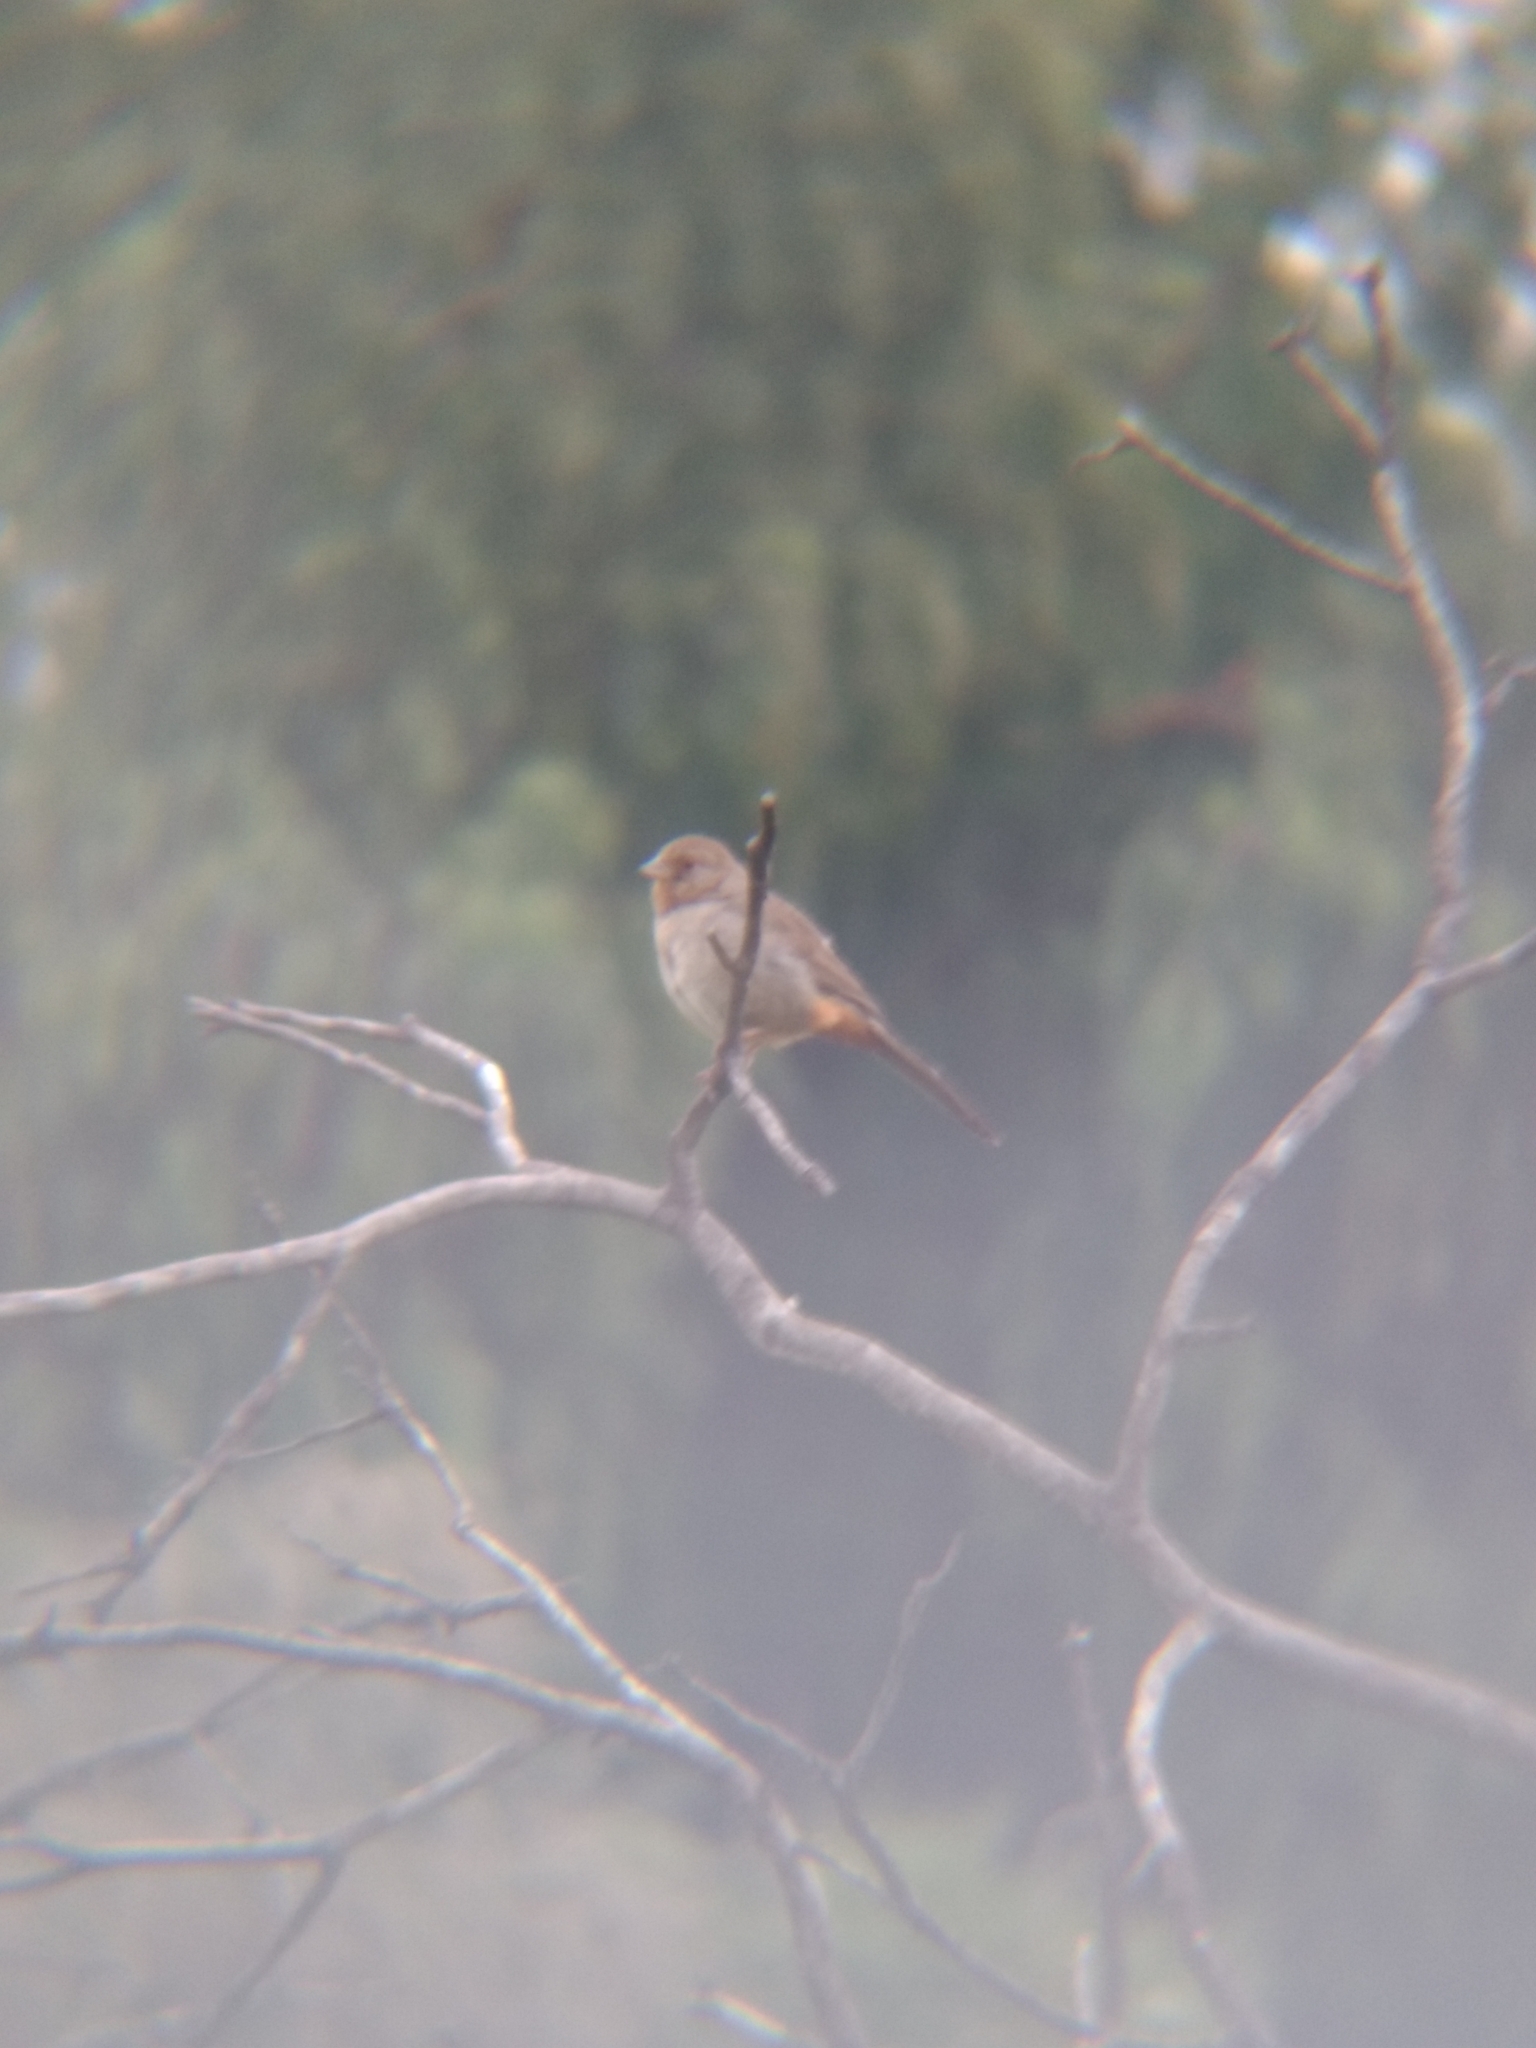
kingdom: Animalia
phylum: Chordata
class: Aves
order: Passeriformes
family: Passerellidae
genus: Melozone
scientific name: Melozone crissalis
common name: California towhee
